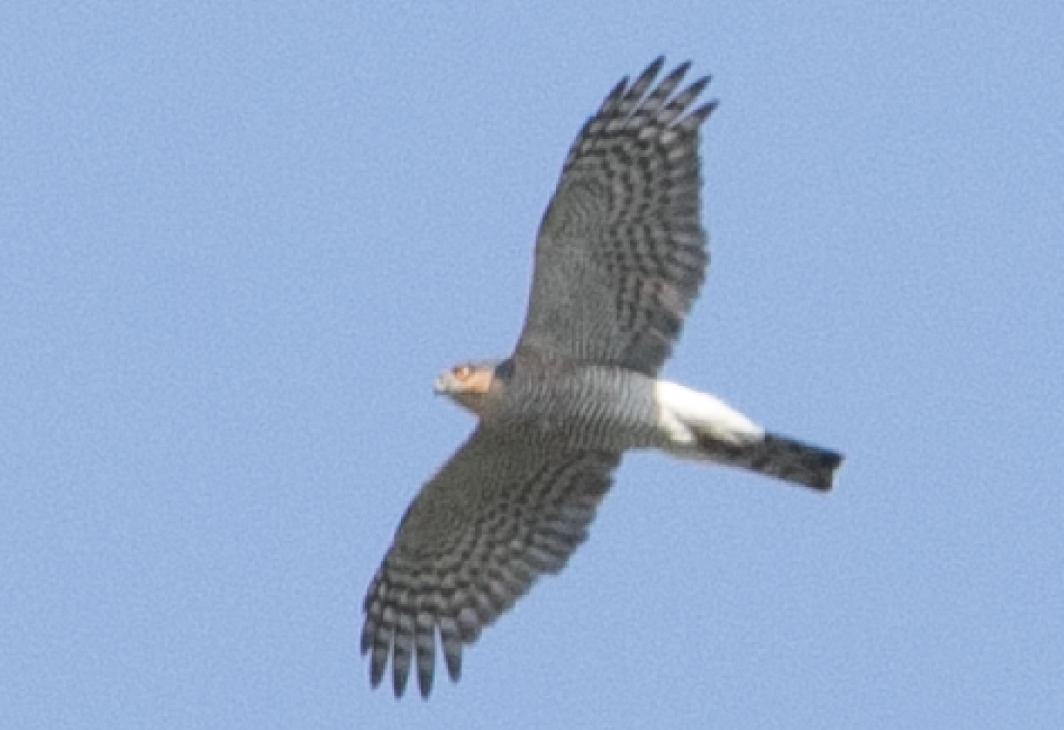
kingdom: Animalia
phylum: Chordata
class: Aves
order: Accipitriformes
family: Accipitridae
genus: Accipiter
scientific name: Accipiter nisus
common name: Eurasian sparrowhawk
